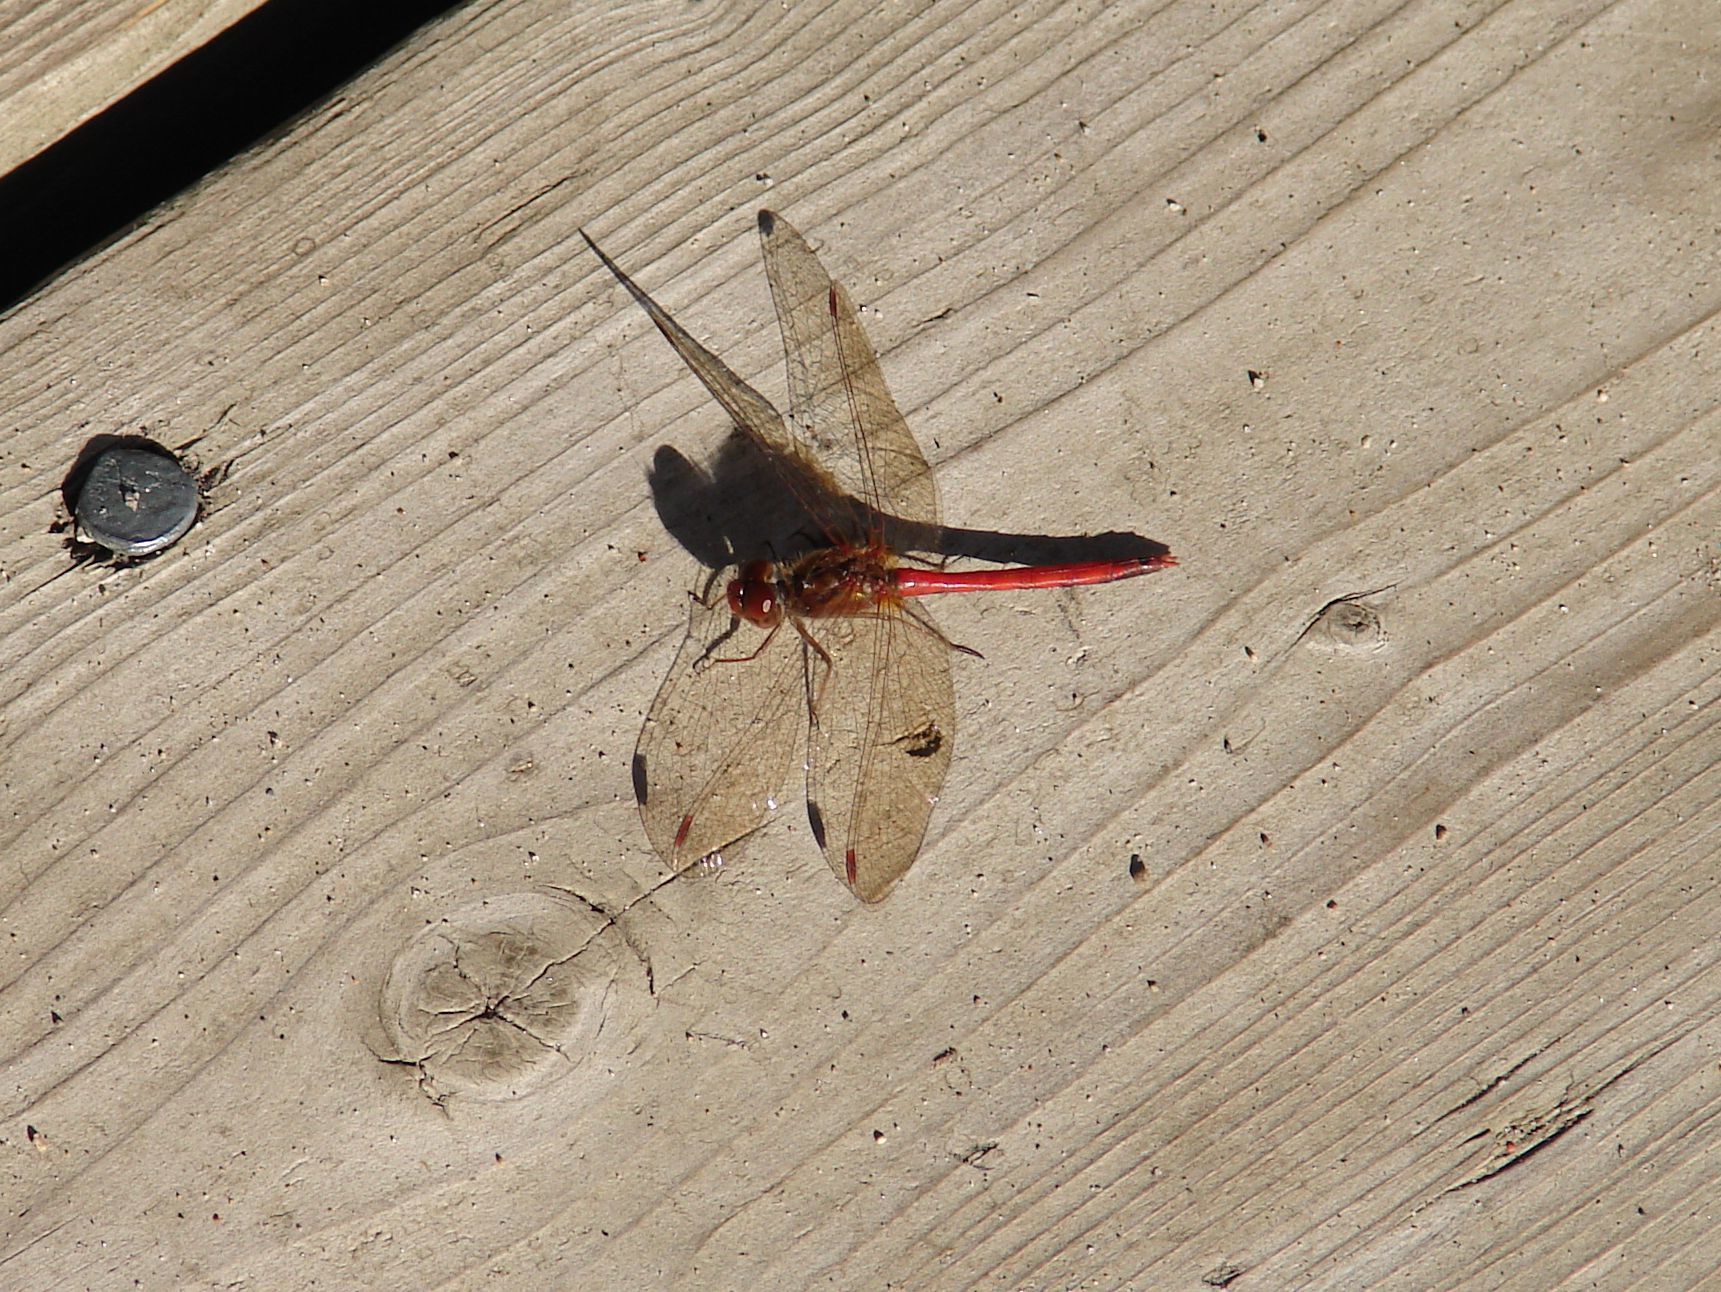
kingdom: Animalia
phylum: Arthropoda
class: Insecta
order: Odonata
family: Libellulidae
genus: Sympetrum
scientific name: Sympetrum vicinum
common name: Autumn meadowhawk
